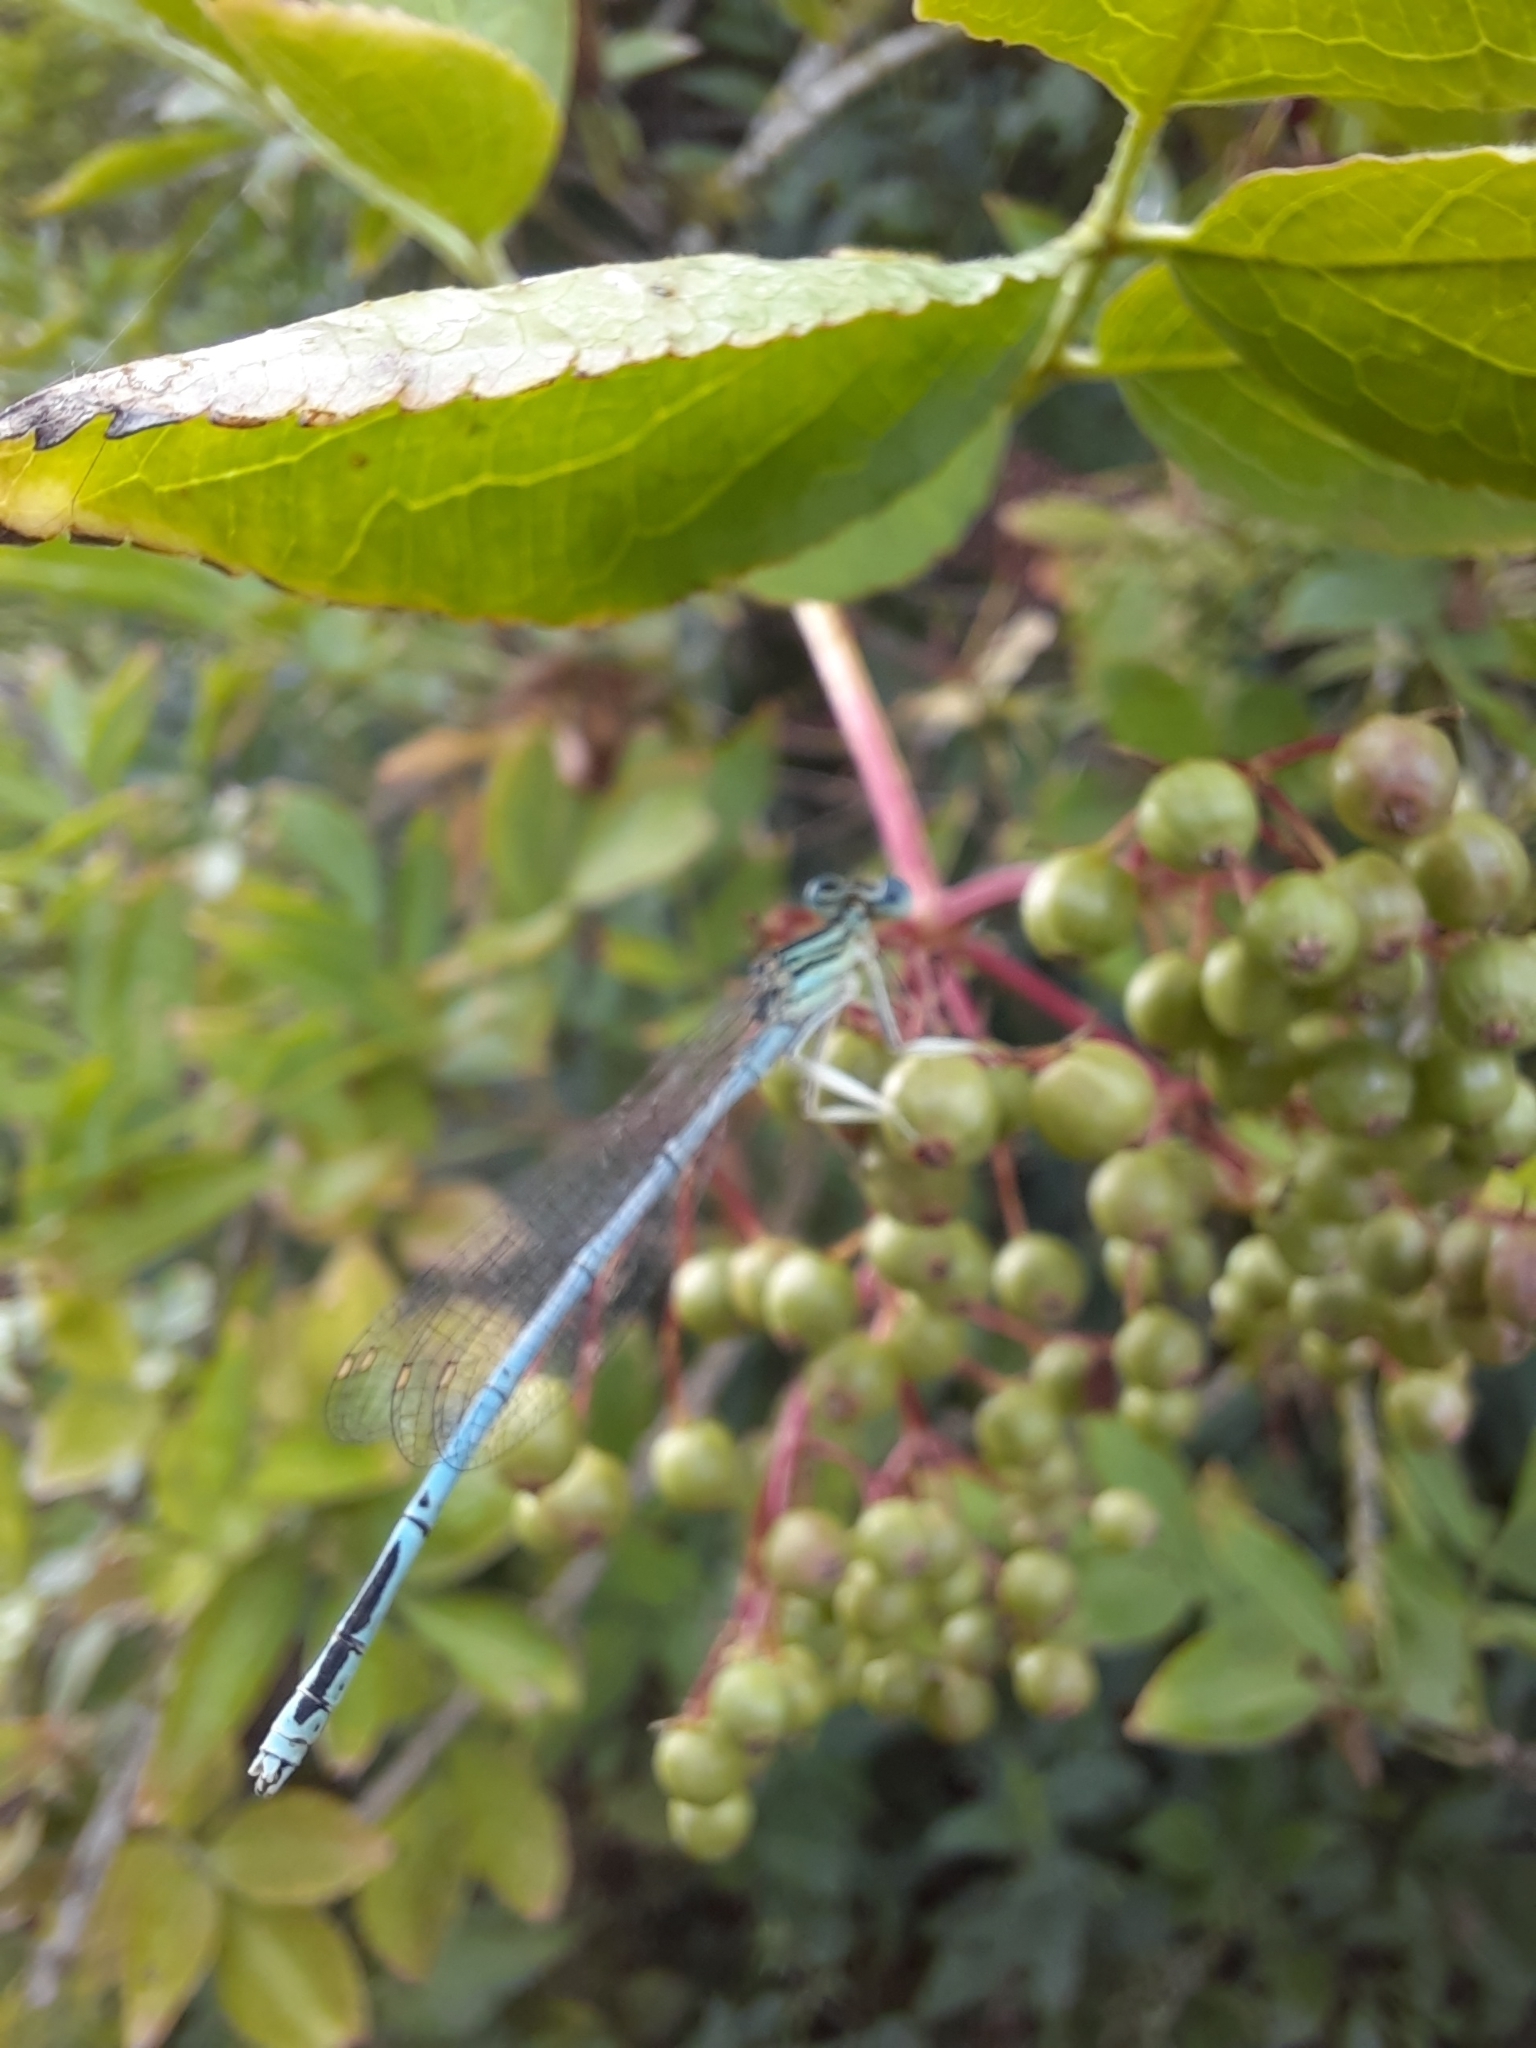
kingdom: Animalia
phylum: Arthropoda
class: Insecta
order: Odonata
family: Platycnemididae
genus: Platycnemis
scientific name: Platycnemis pennipes
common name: White-legged damselfly
